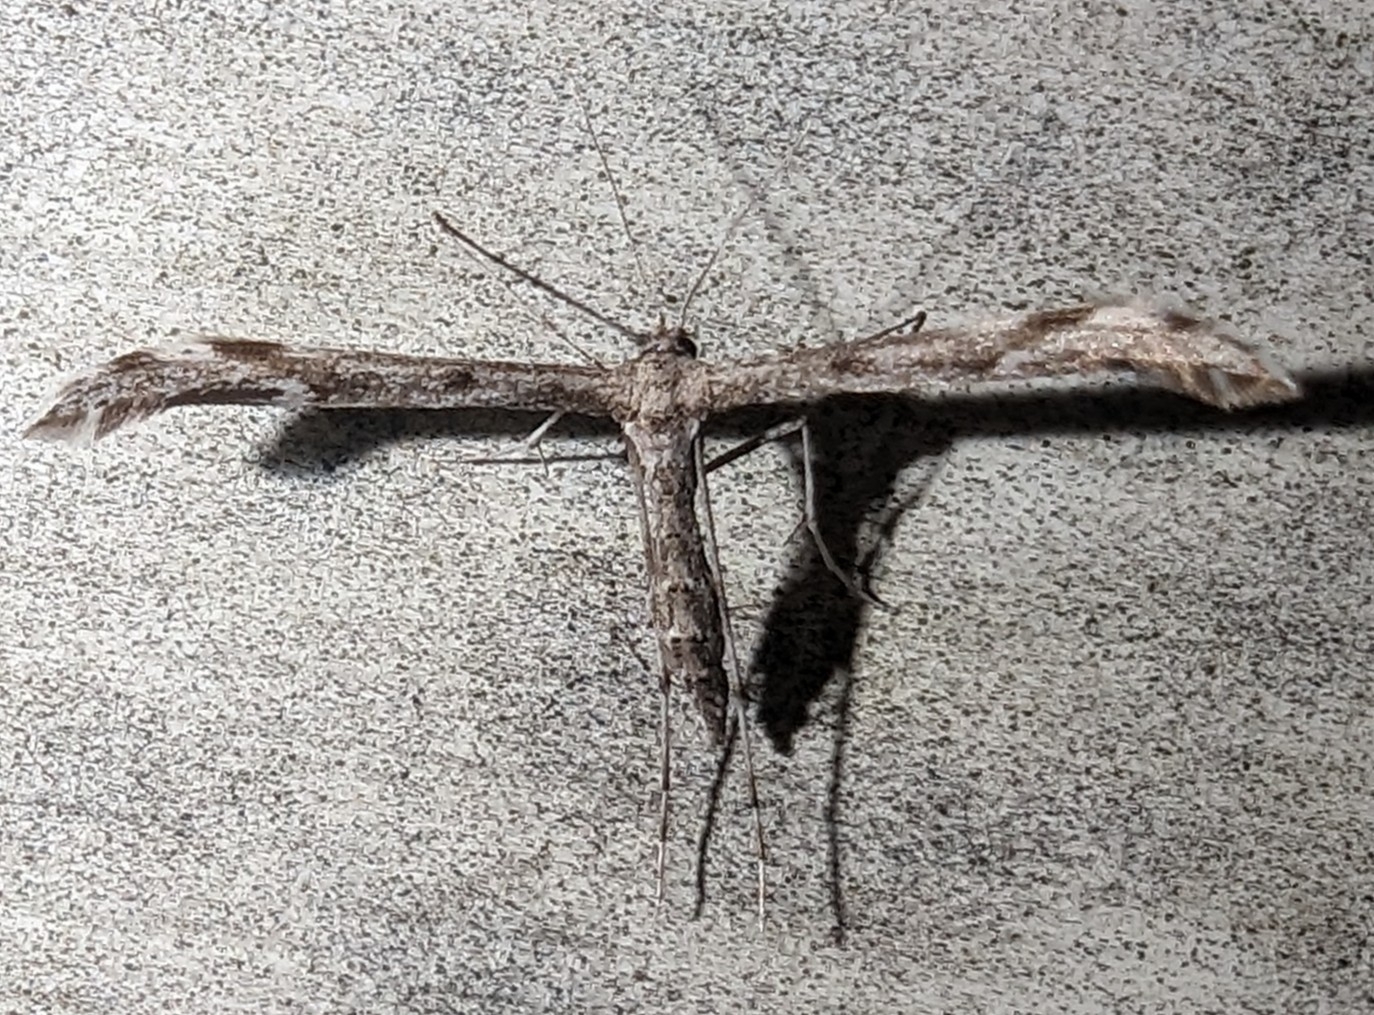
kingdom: Animalia
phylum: Arthropoda
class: Insecta
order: Lepidoptera
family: Pterophoridae
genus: Hellinsia
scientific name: Hellinsia inquinatus
